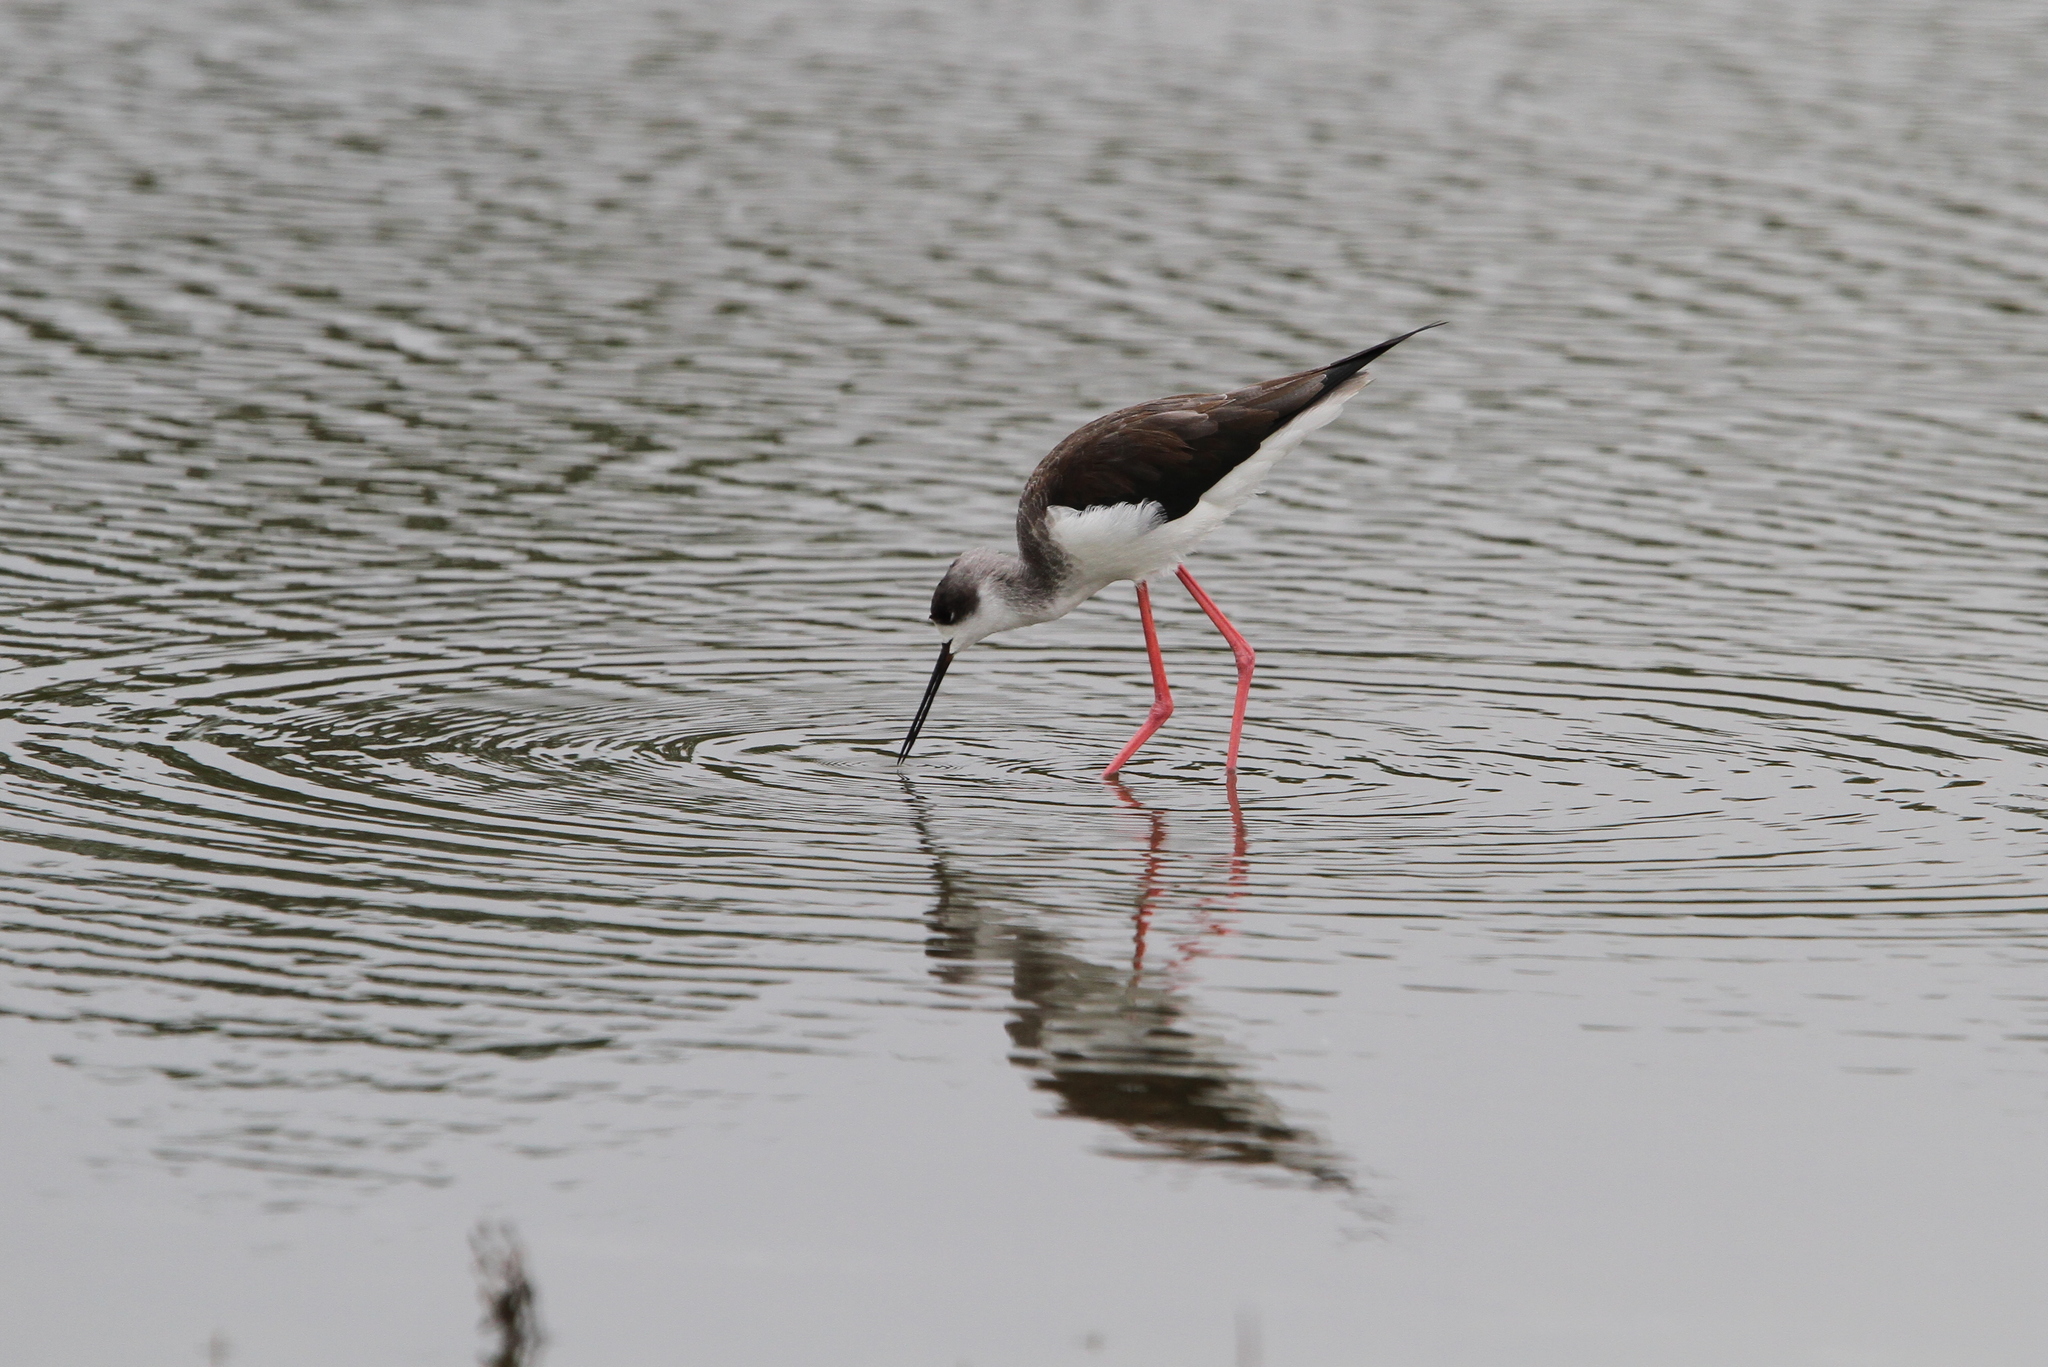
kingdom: Animalia
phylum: Chordata
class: Aves
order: Charadriiformes
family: Recurvirostridae
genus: Himantopus
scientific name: Himantopus himantopus
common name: Black-winged stilt
